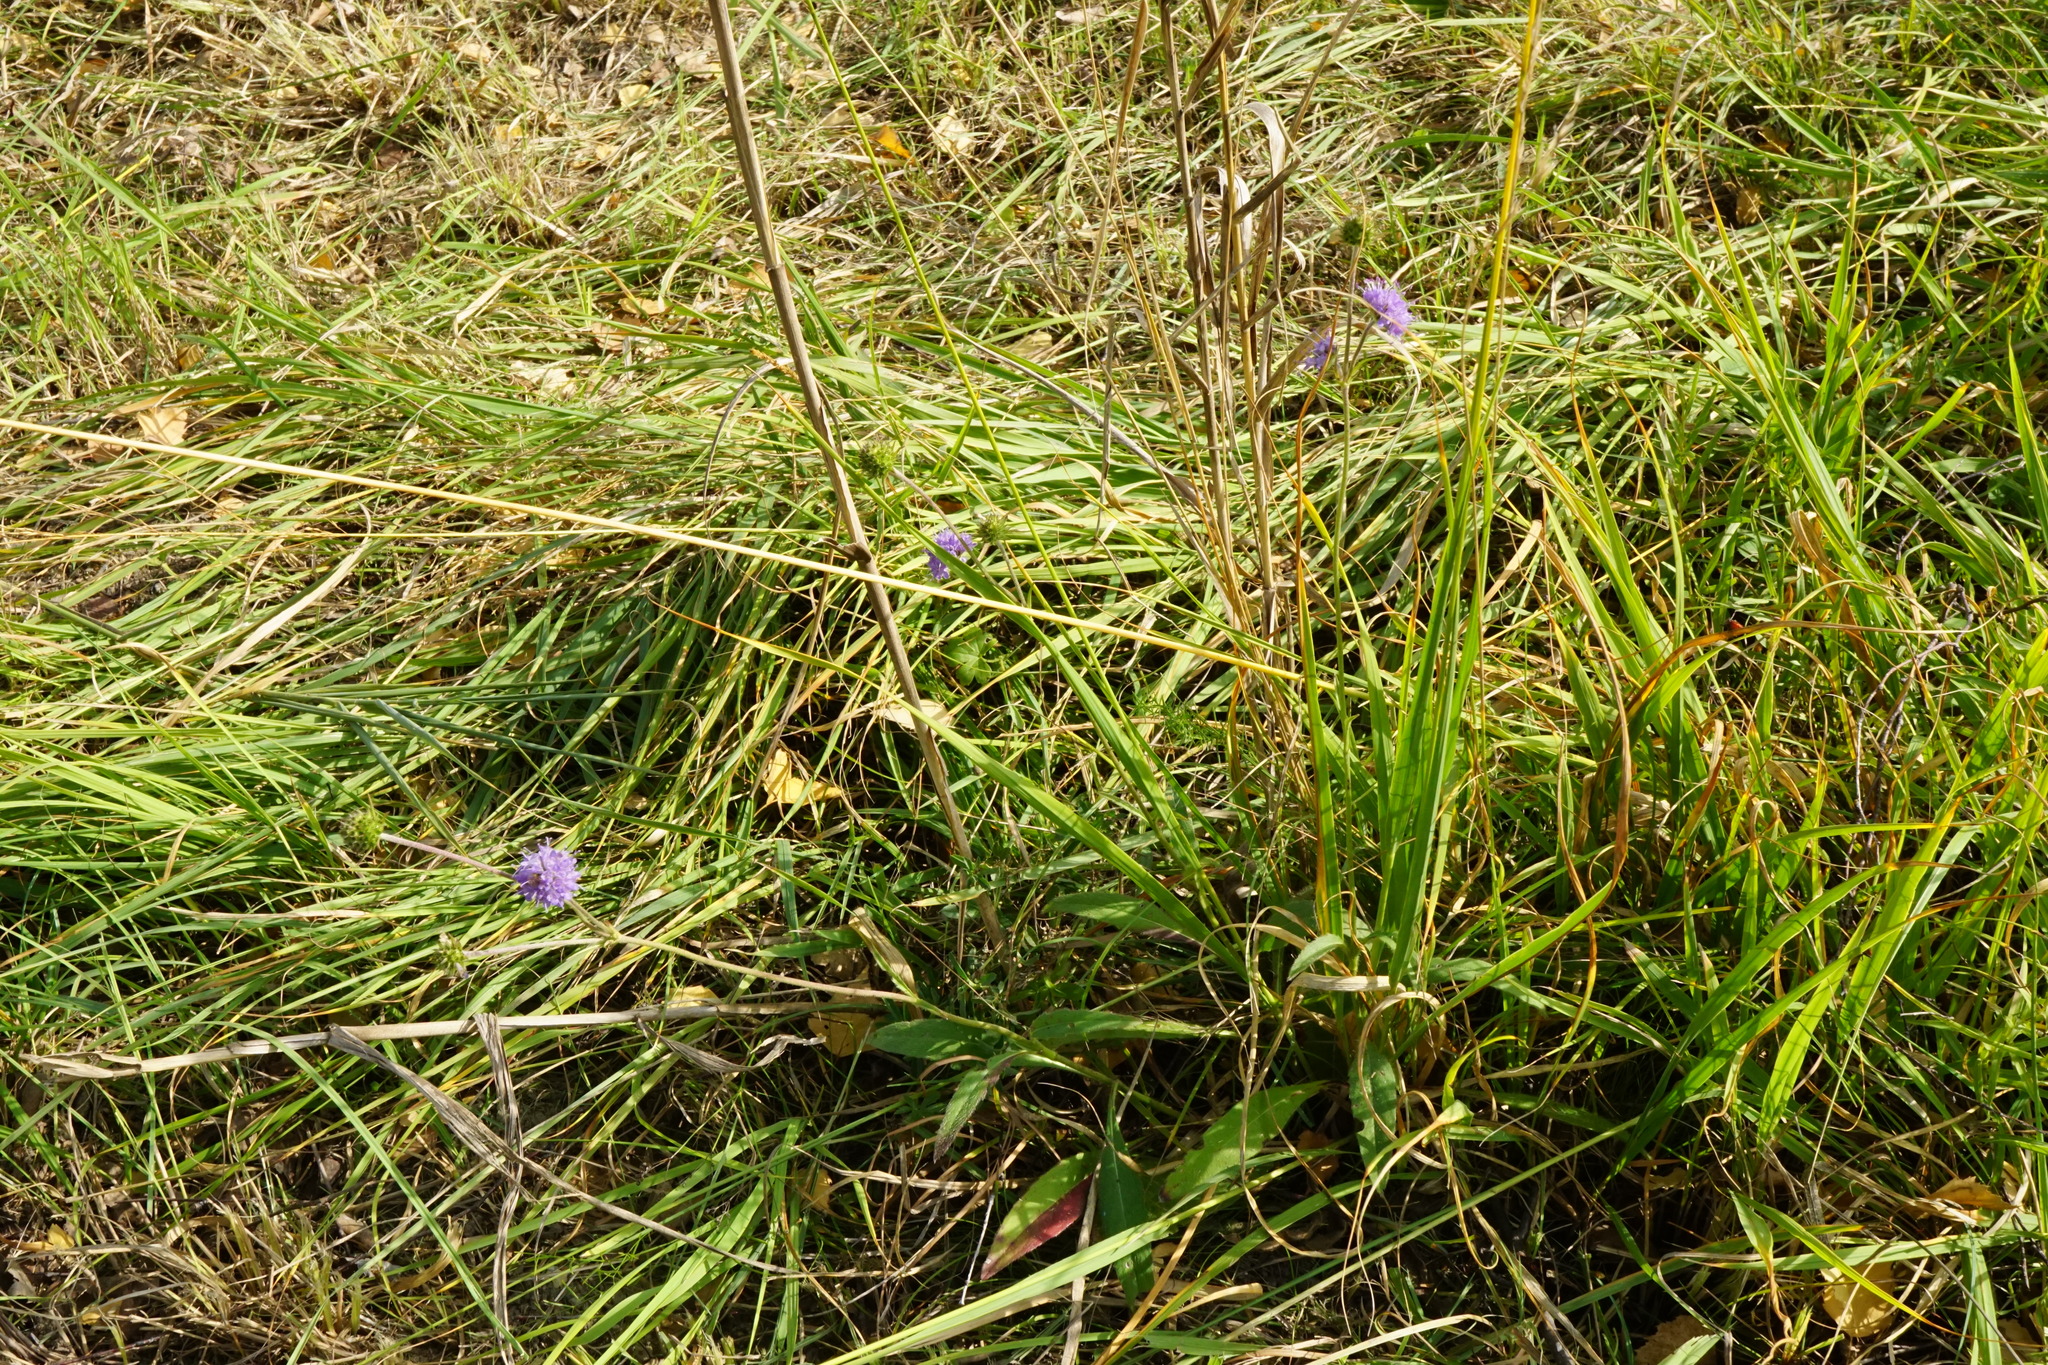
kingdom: Plantae
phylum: Tracheophyta
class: Magnoliopsida
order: Dipsacales
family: Caprifoliaceae
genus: Succisa
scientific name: Succisa pratensis
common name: Devil's-bit
